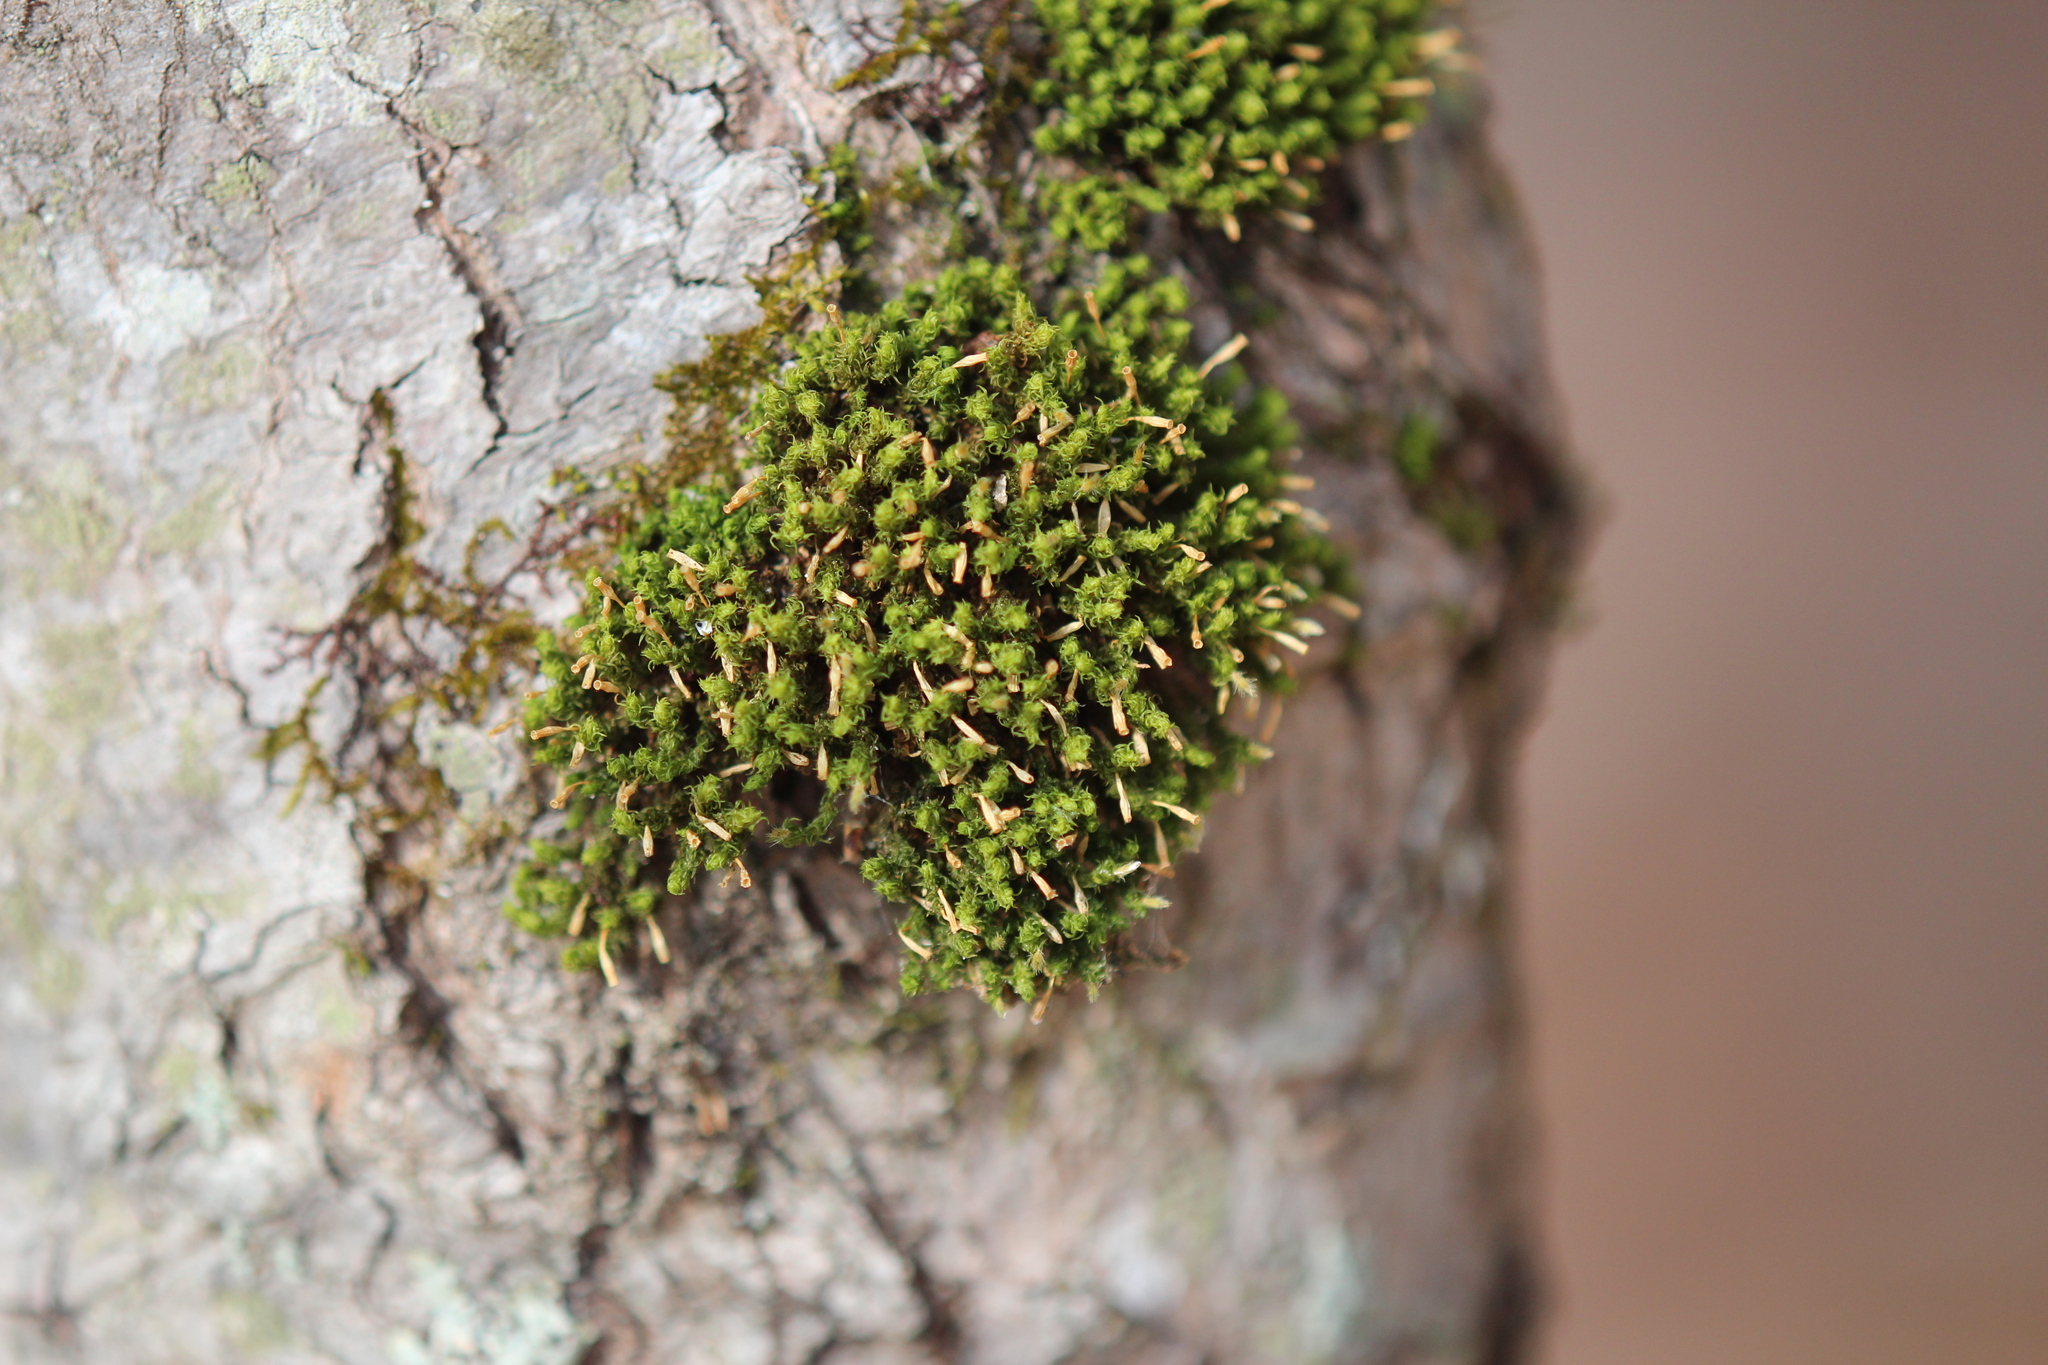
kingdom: Plantae
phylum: Bryophyta
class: Bryopsida
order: Orthotrichales
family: Orthotrichaceae
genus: Ulota
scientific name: Ulota crispa
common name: Crisped pincushion moss
